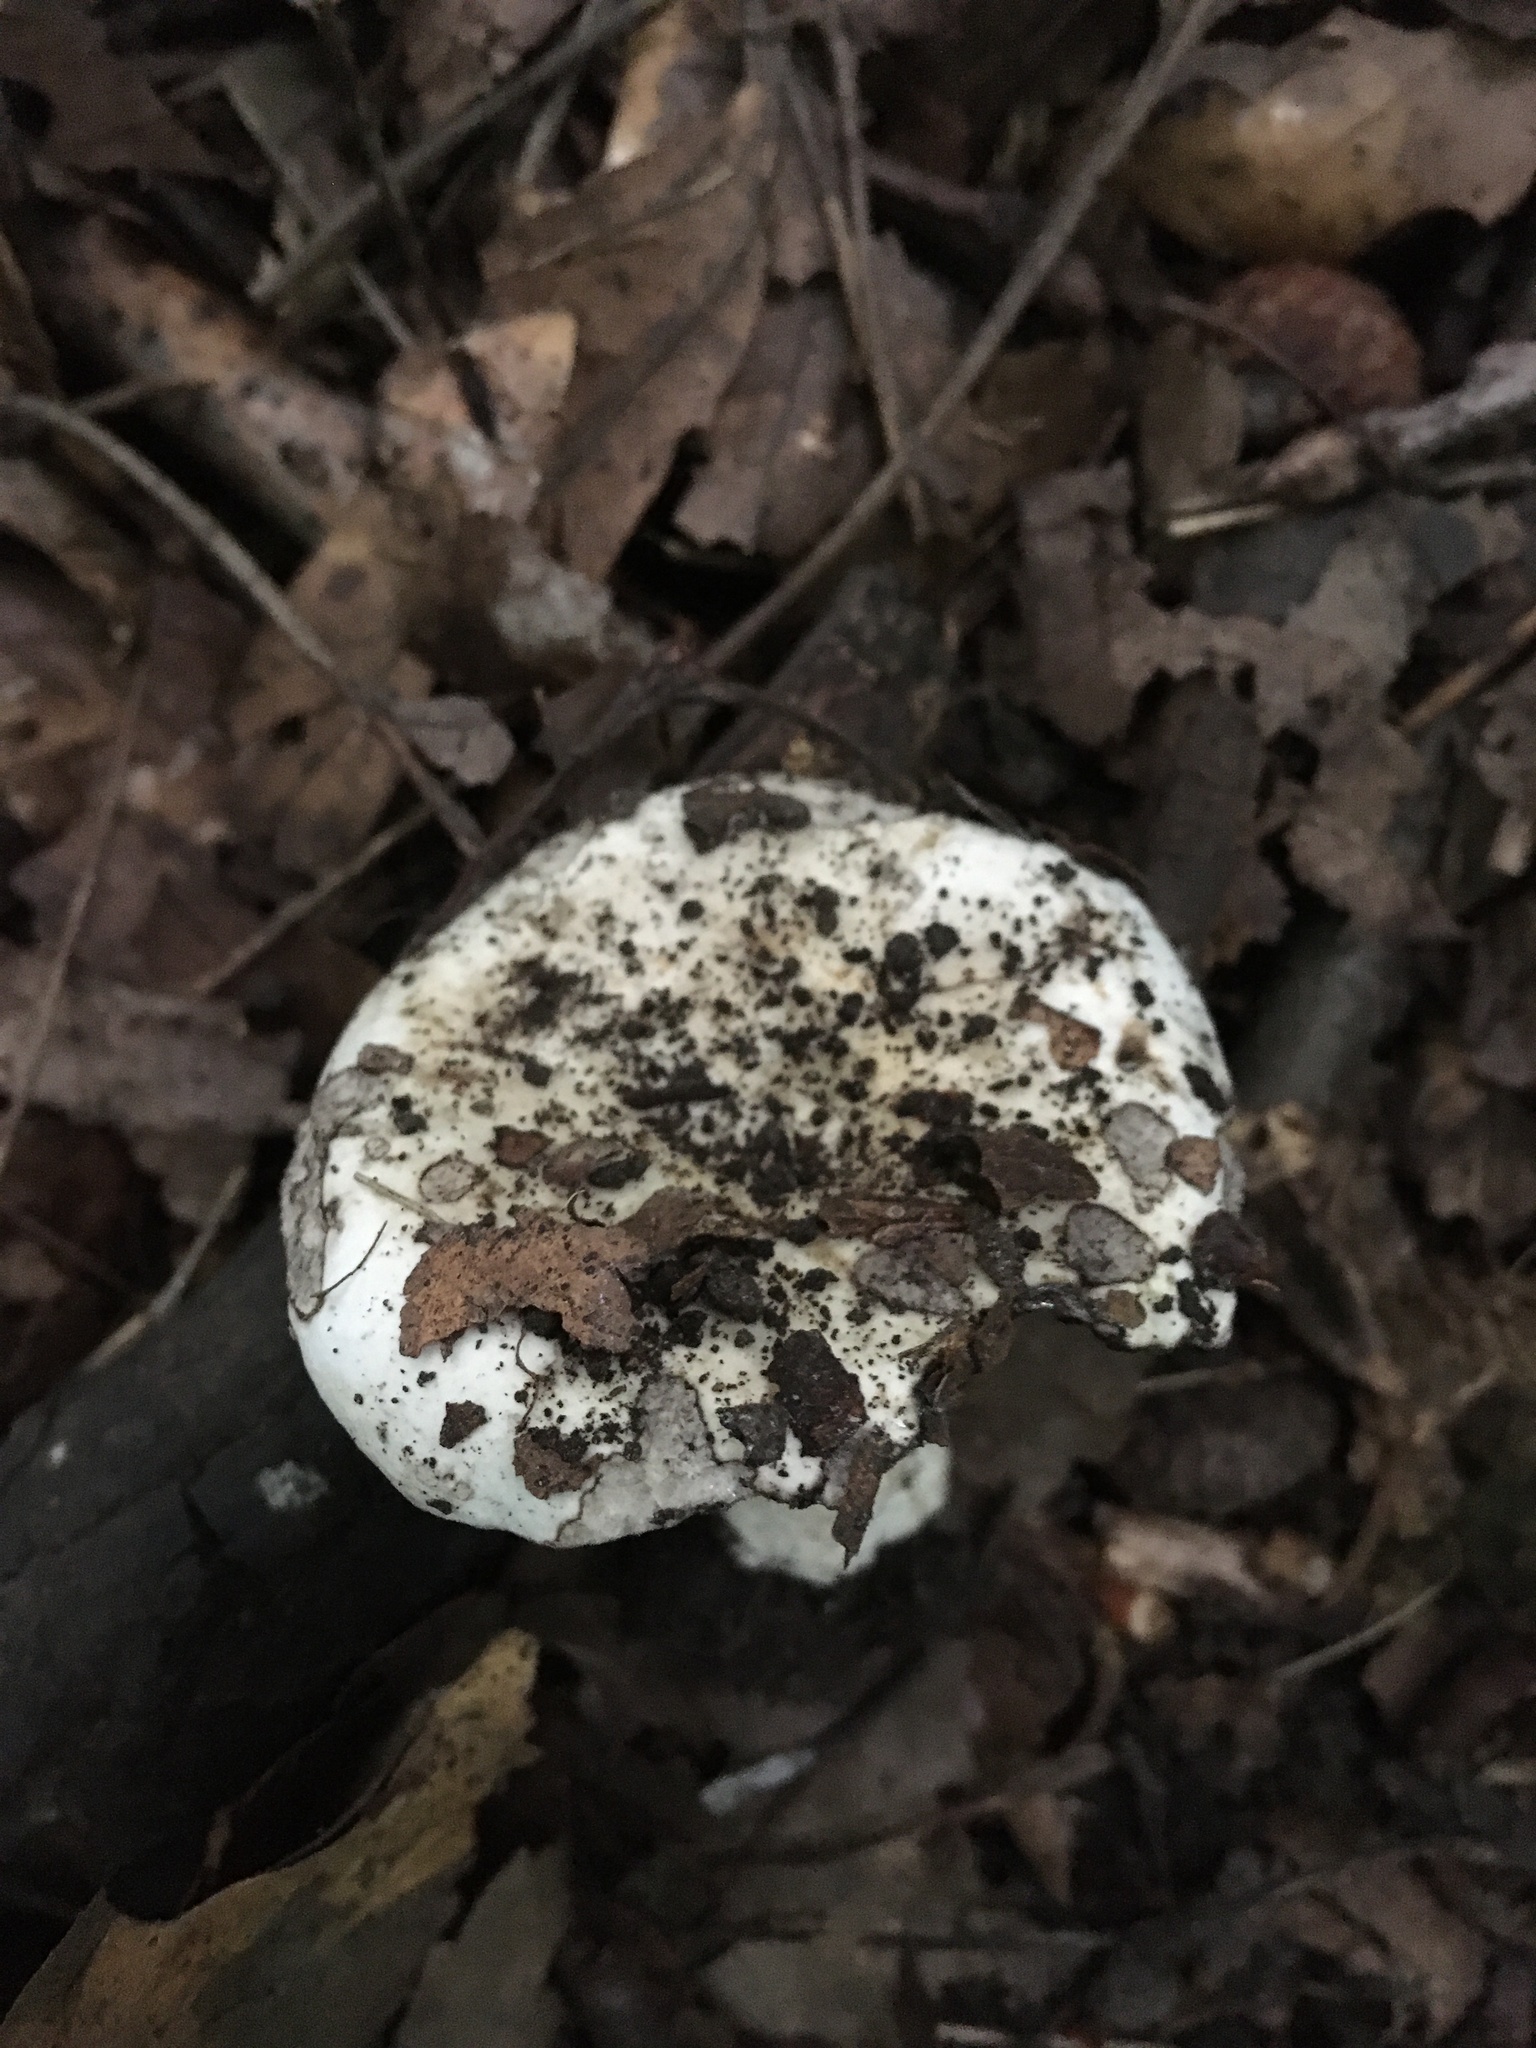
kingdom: Fungi
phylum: Basidiomycota
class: Agaricomycetes
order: Russulales
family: Russulaceae
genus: Russula
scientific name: Russula albonigra
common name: Menthol brittlegill
